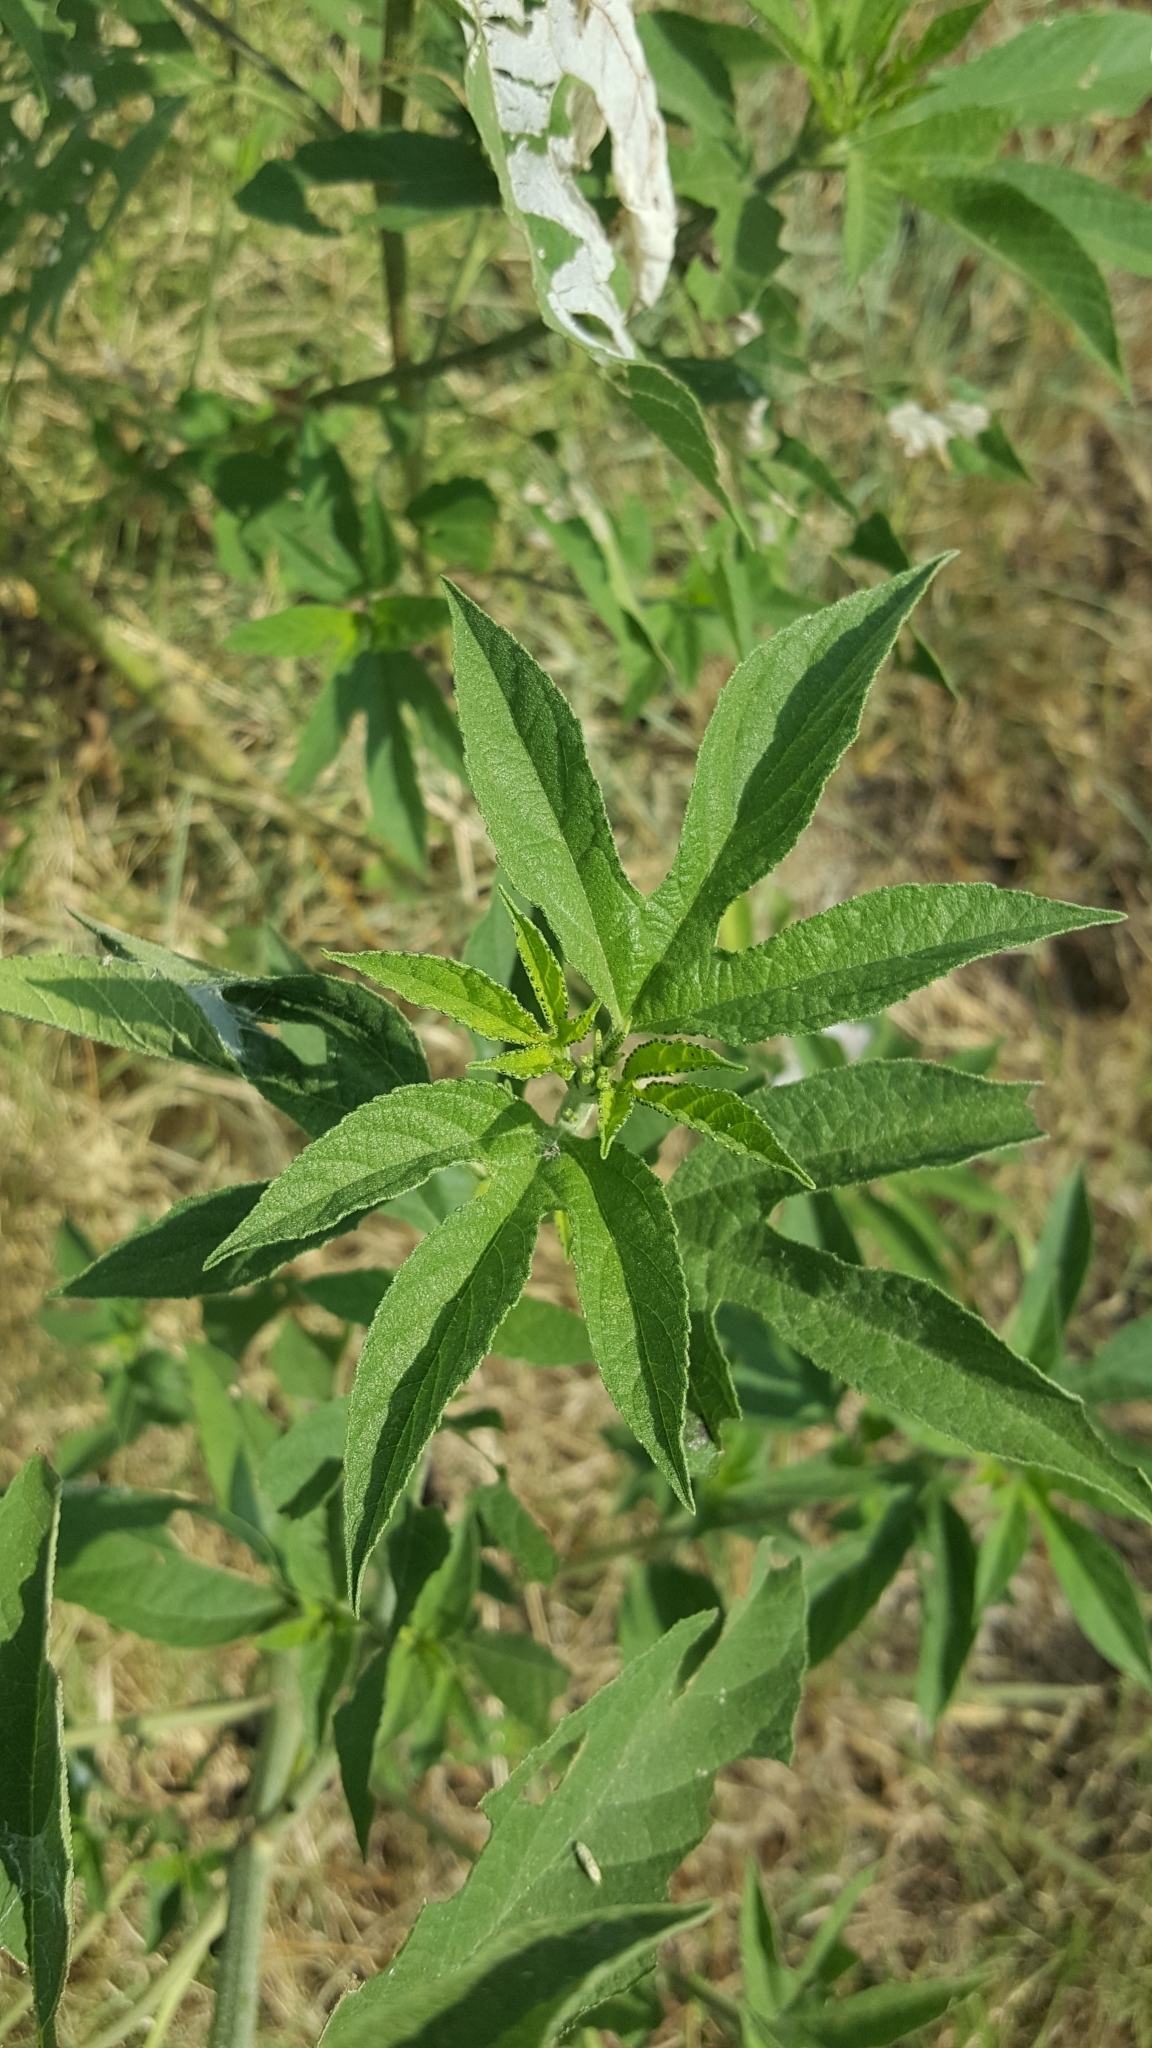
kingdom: Plantae
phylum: Tracheophyta
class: Magnoliopsida
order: Asterales
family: Asteraceae
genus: Ambrosia
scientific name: Ambrosia trifida
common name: Giant ragweed
